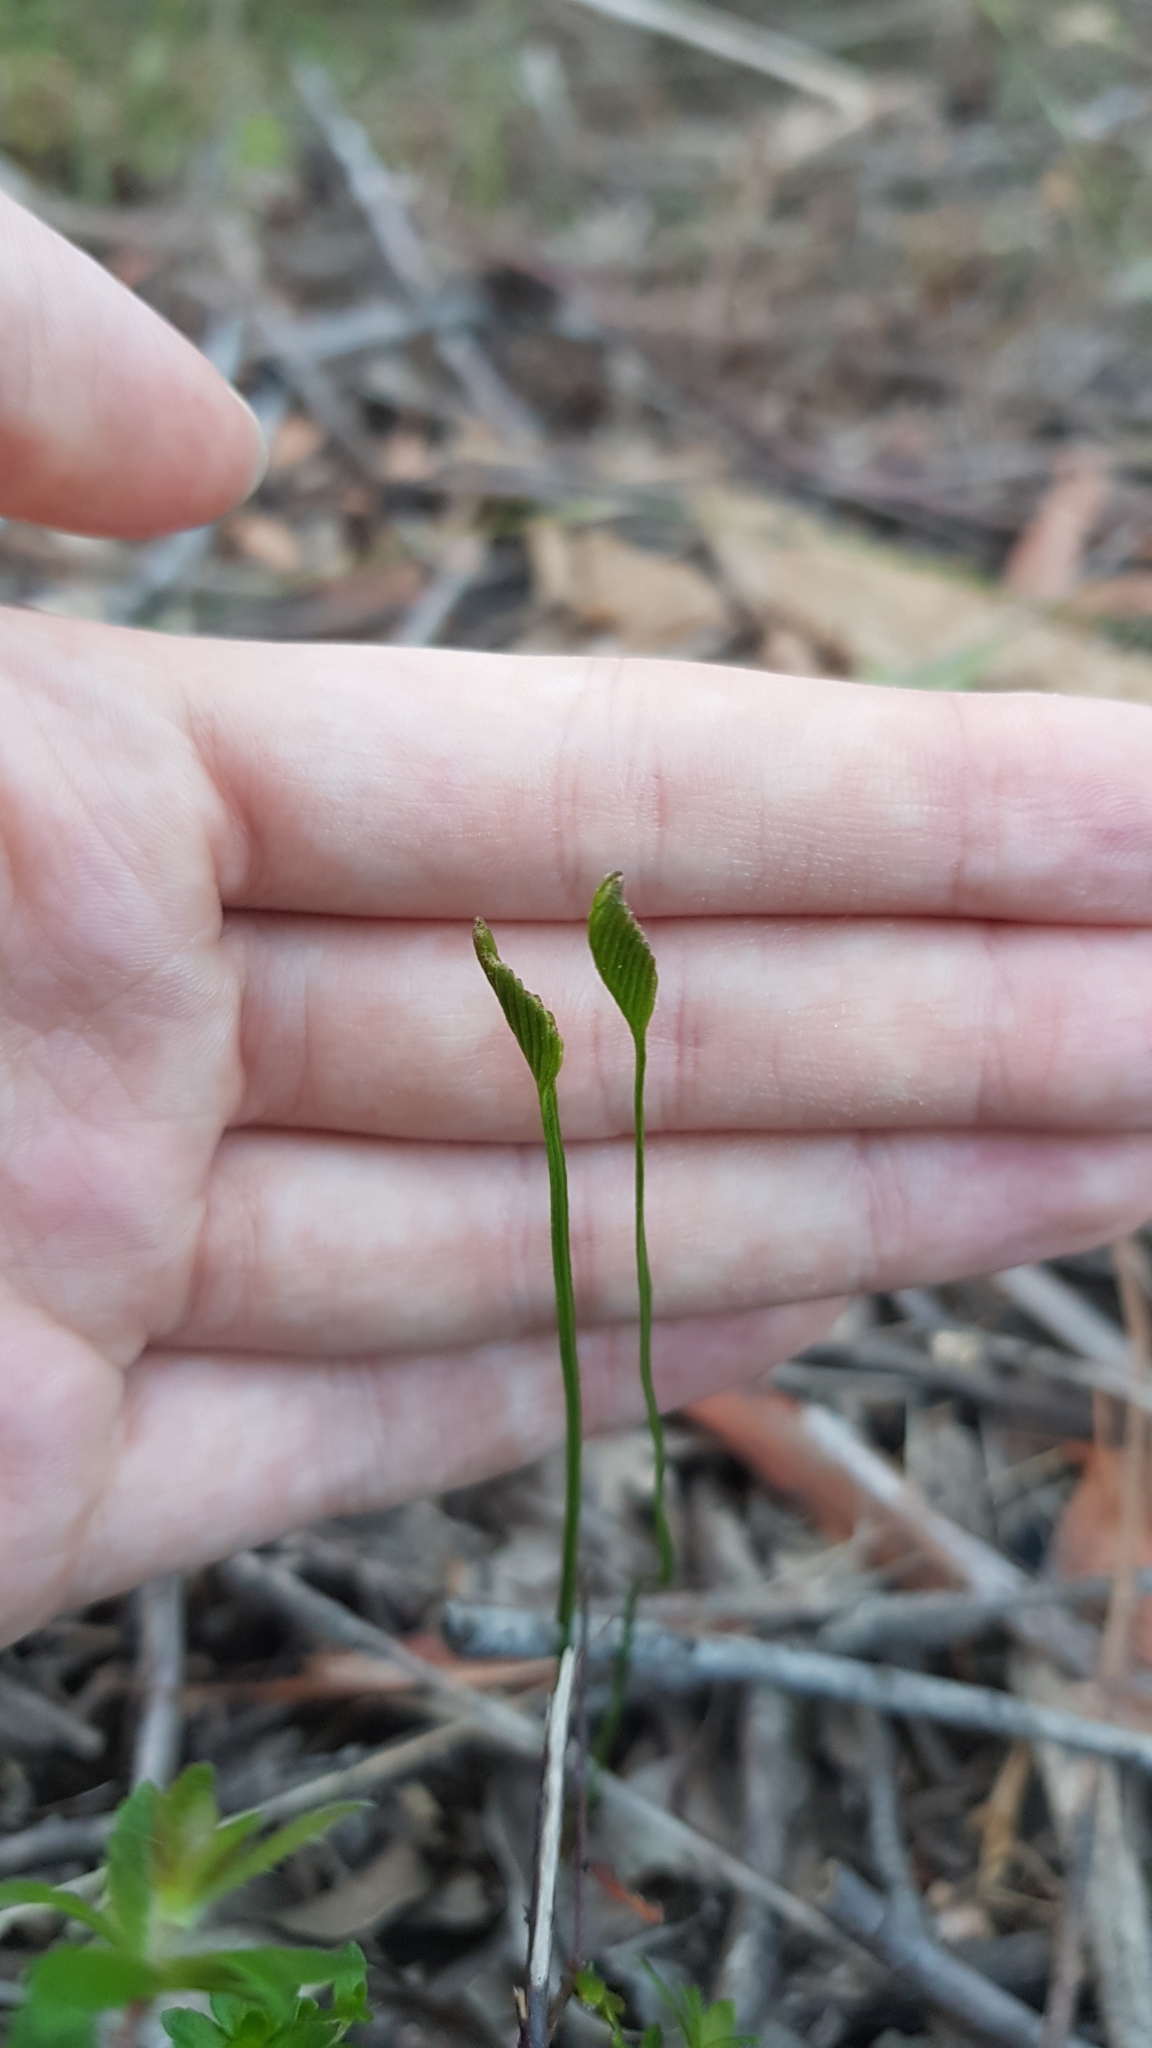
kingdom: Plantae
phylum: Tracheophyta
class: Polypodiopsida
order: Schizaeales
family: Schizaeaceae
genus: Schizaea
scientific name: Schizaea bifida
